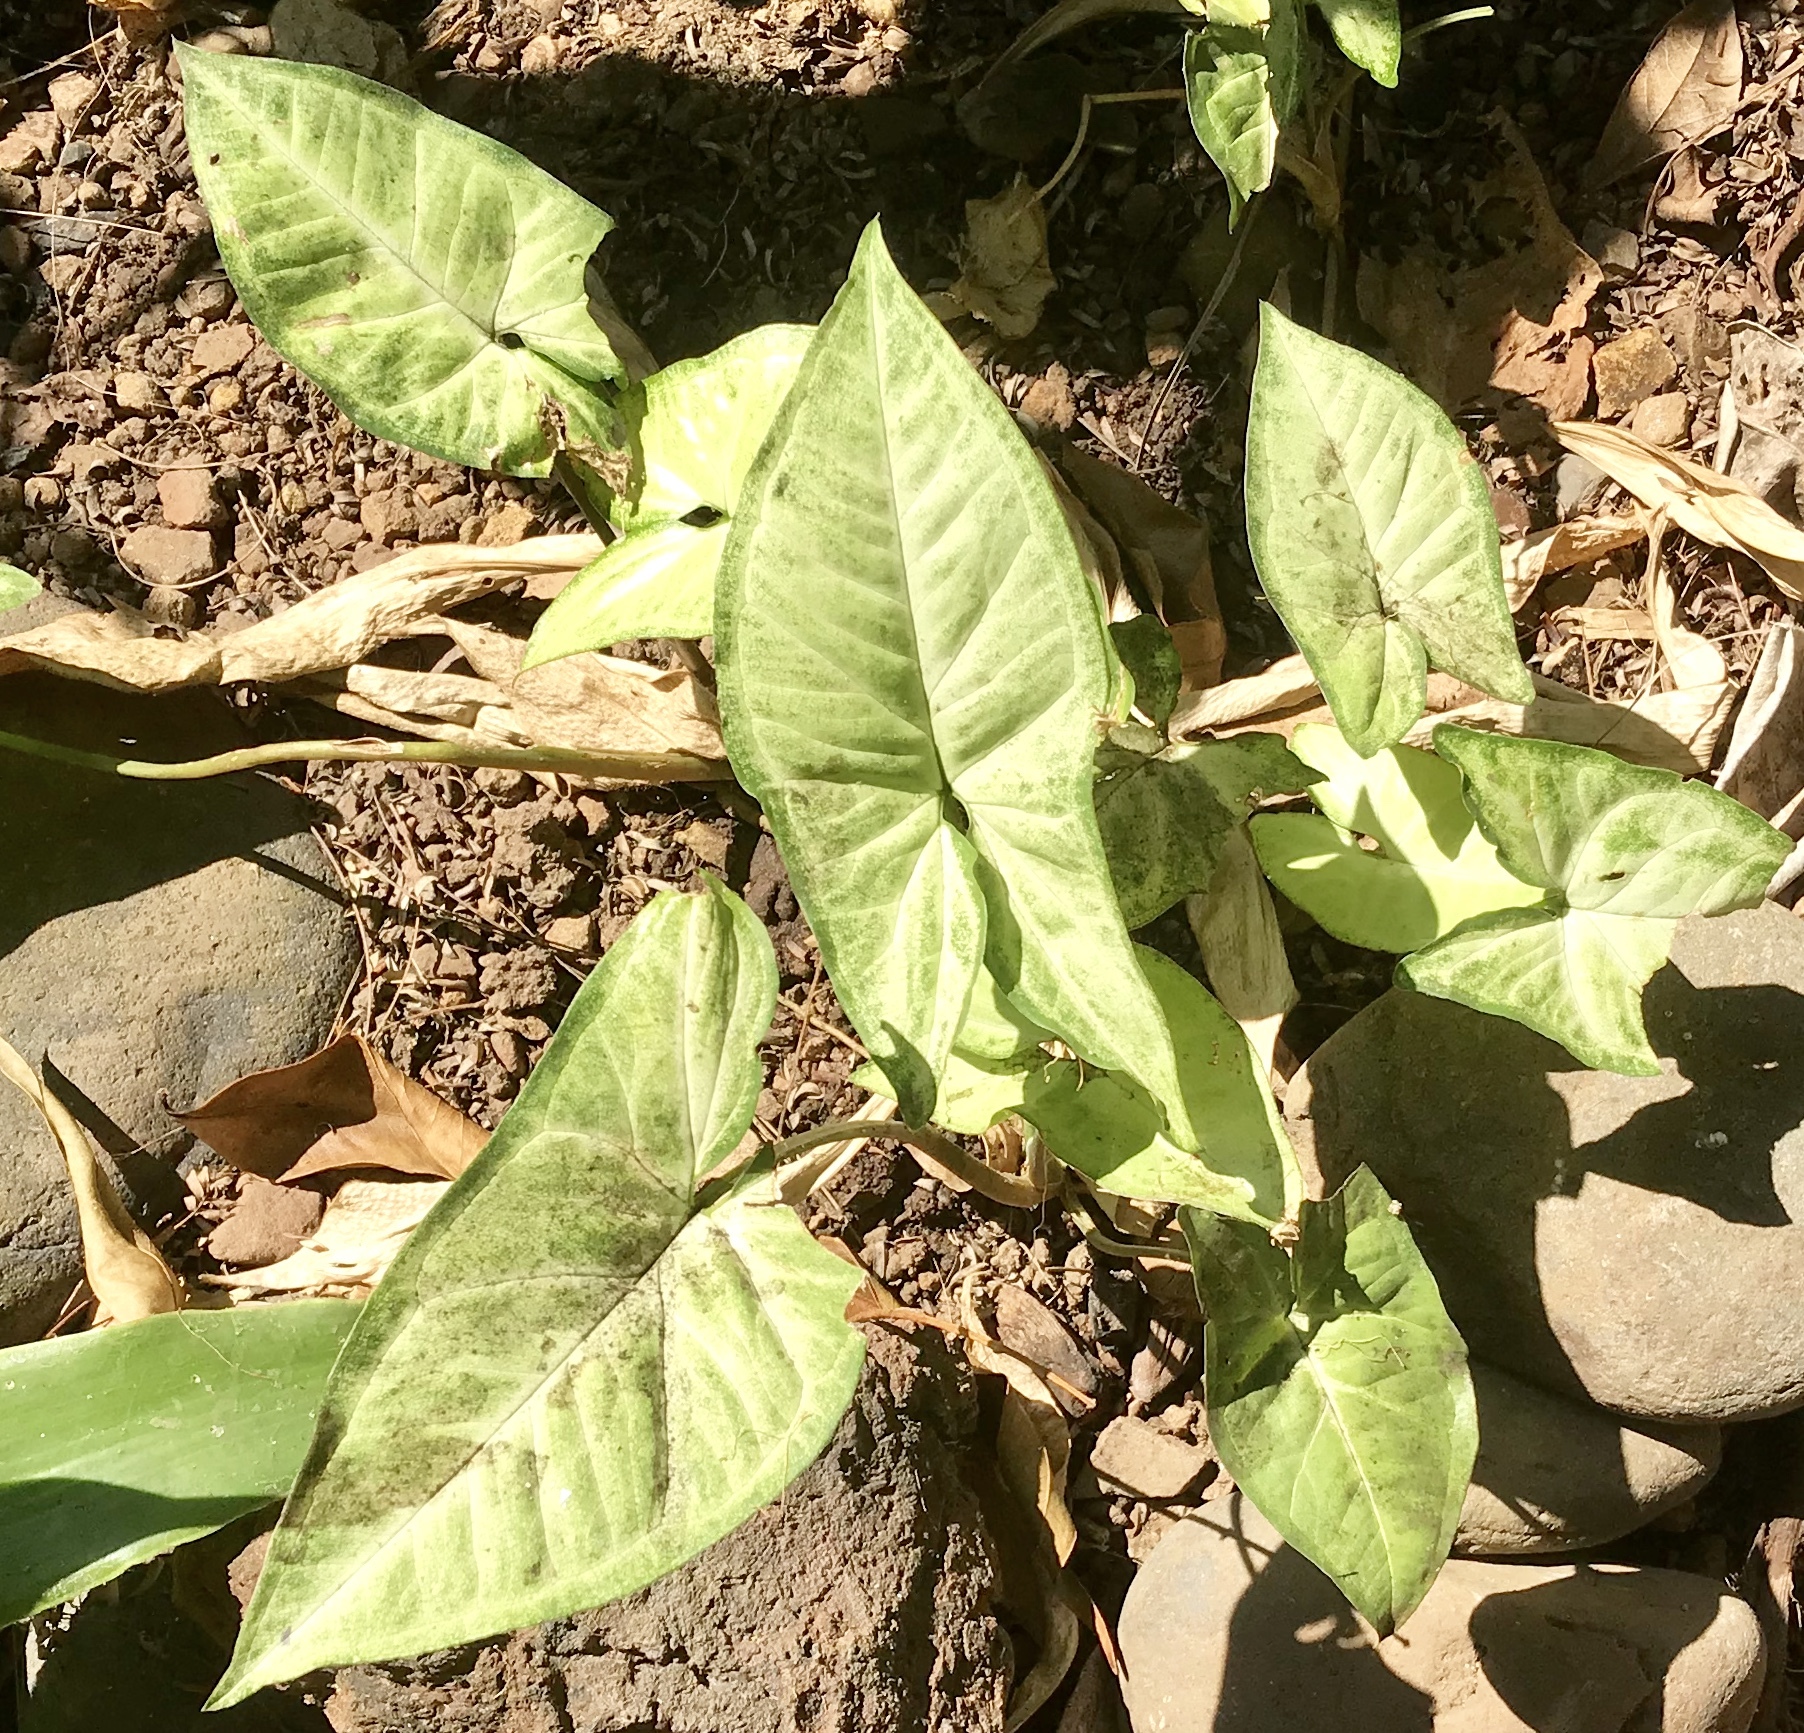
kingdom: Plantae
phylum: Tracheophyta
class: Liliopsida
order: Alismatales
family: Araceae
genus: Syngonium
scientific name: Syngonium podophyllum
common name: American evergreen
